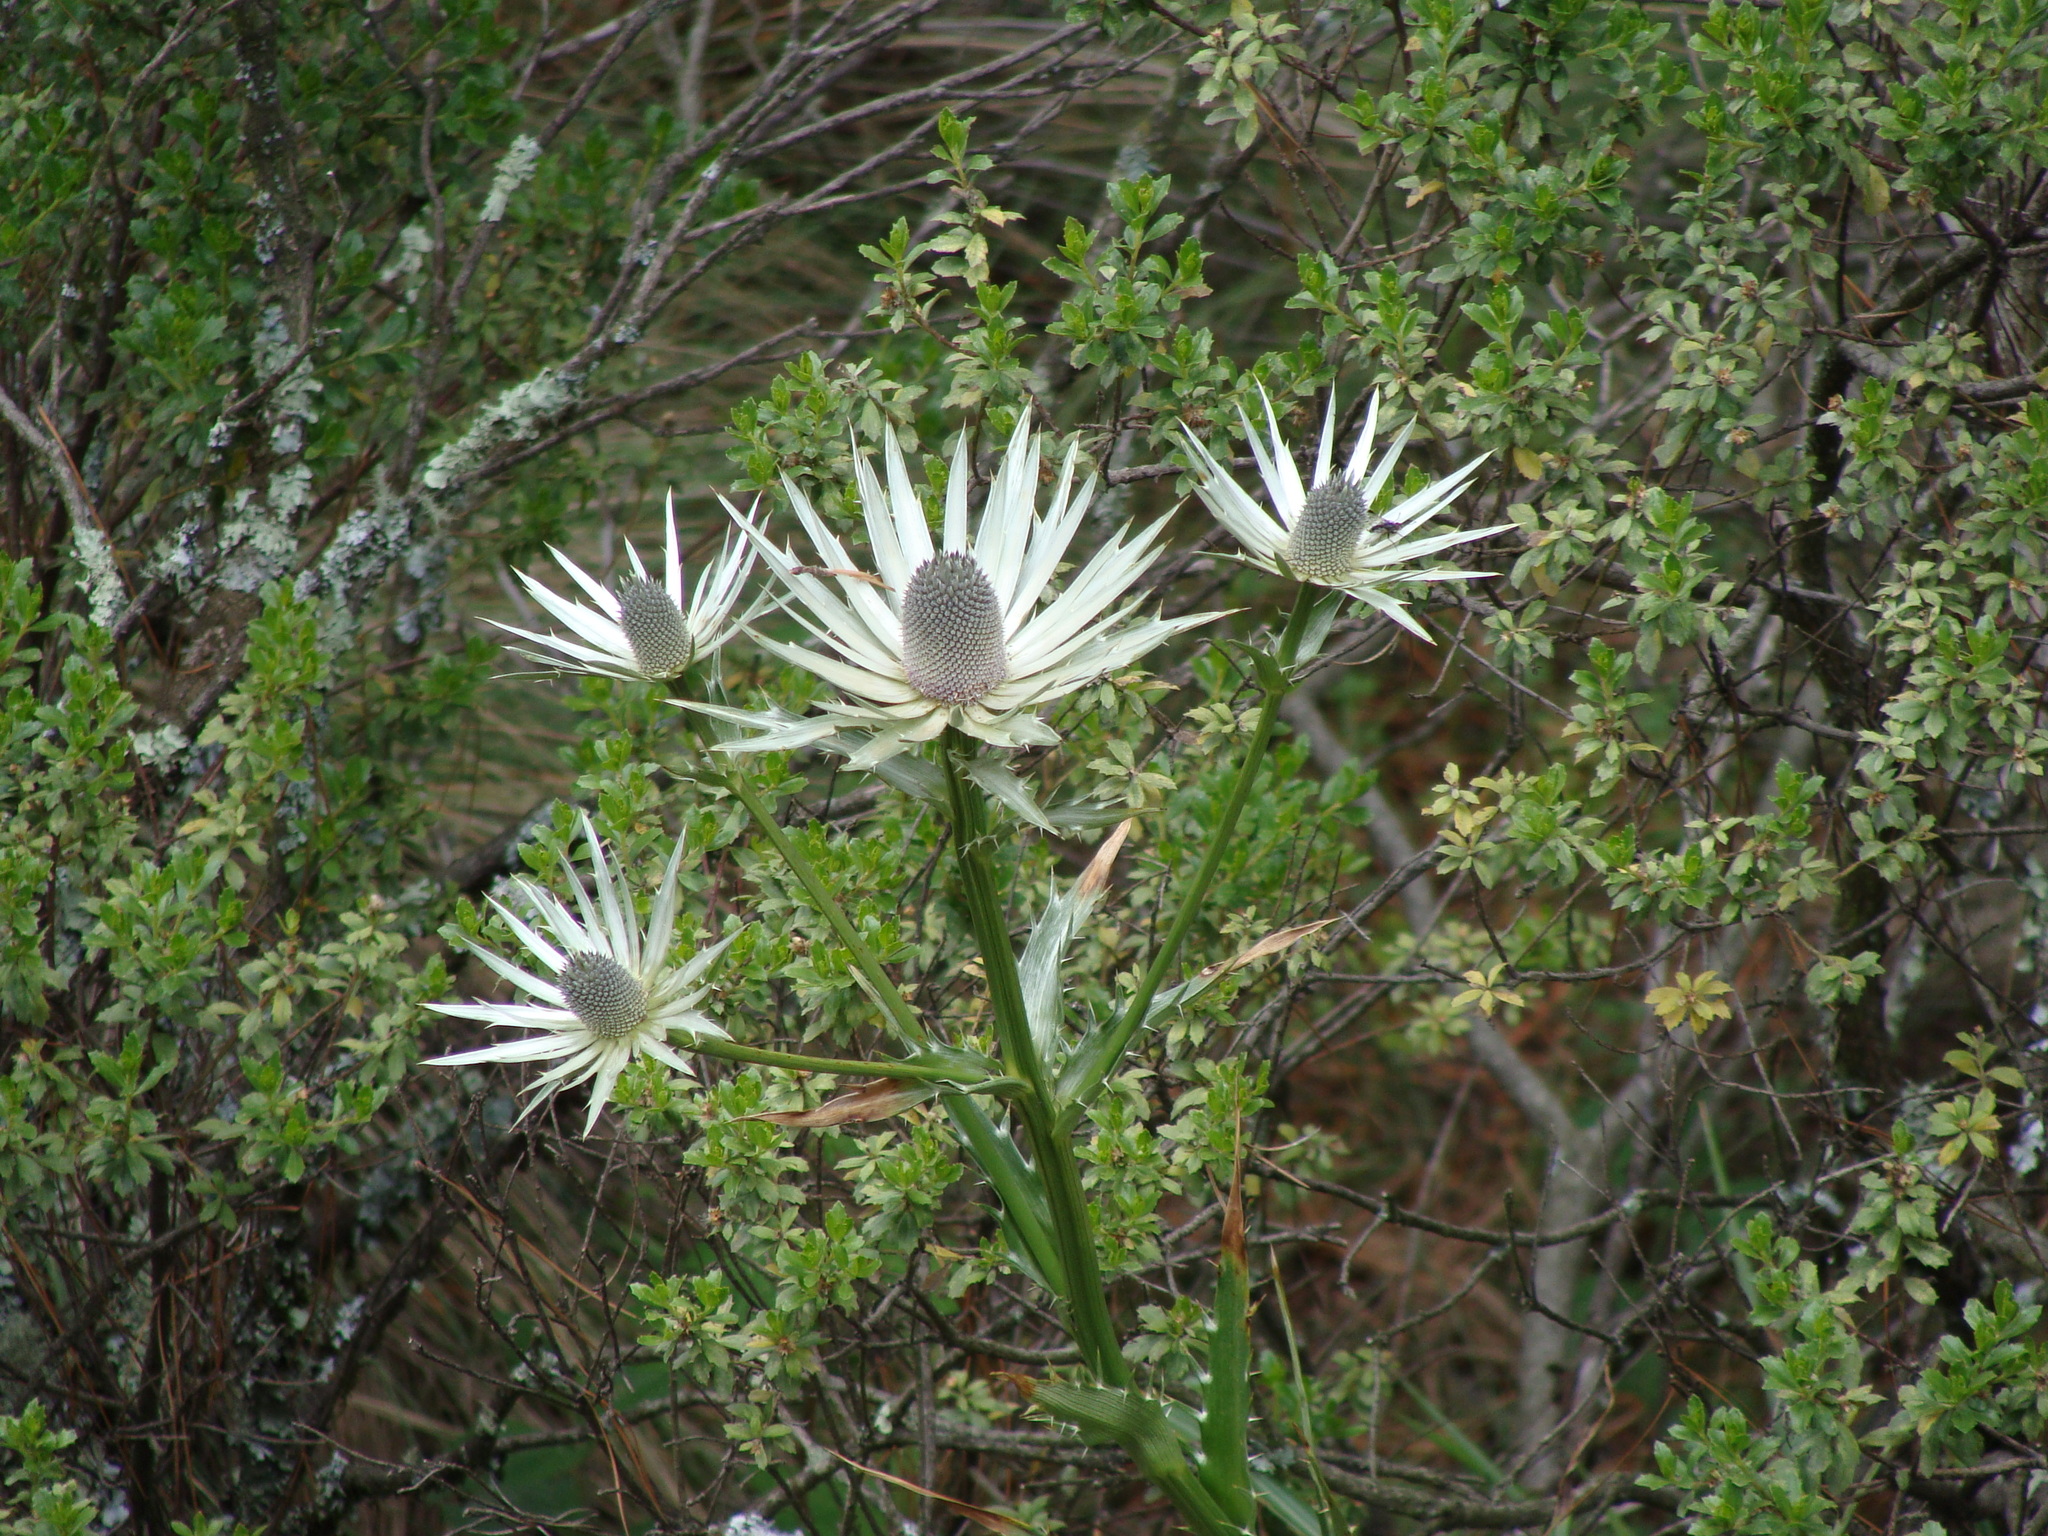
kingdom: Plantae
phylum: Tracheophyta
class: Magnoliopsida
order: Apiales
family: Apiaceae
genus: Eryngium
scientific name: Eryngium proteiflorum
